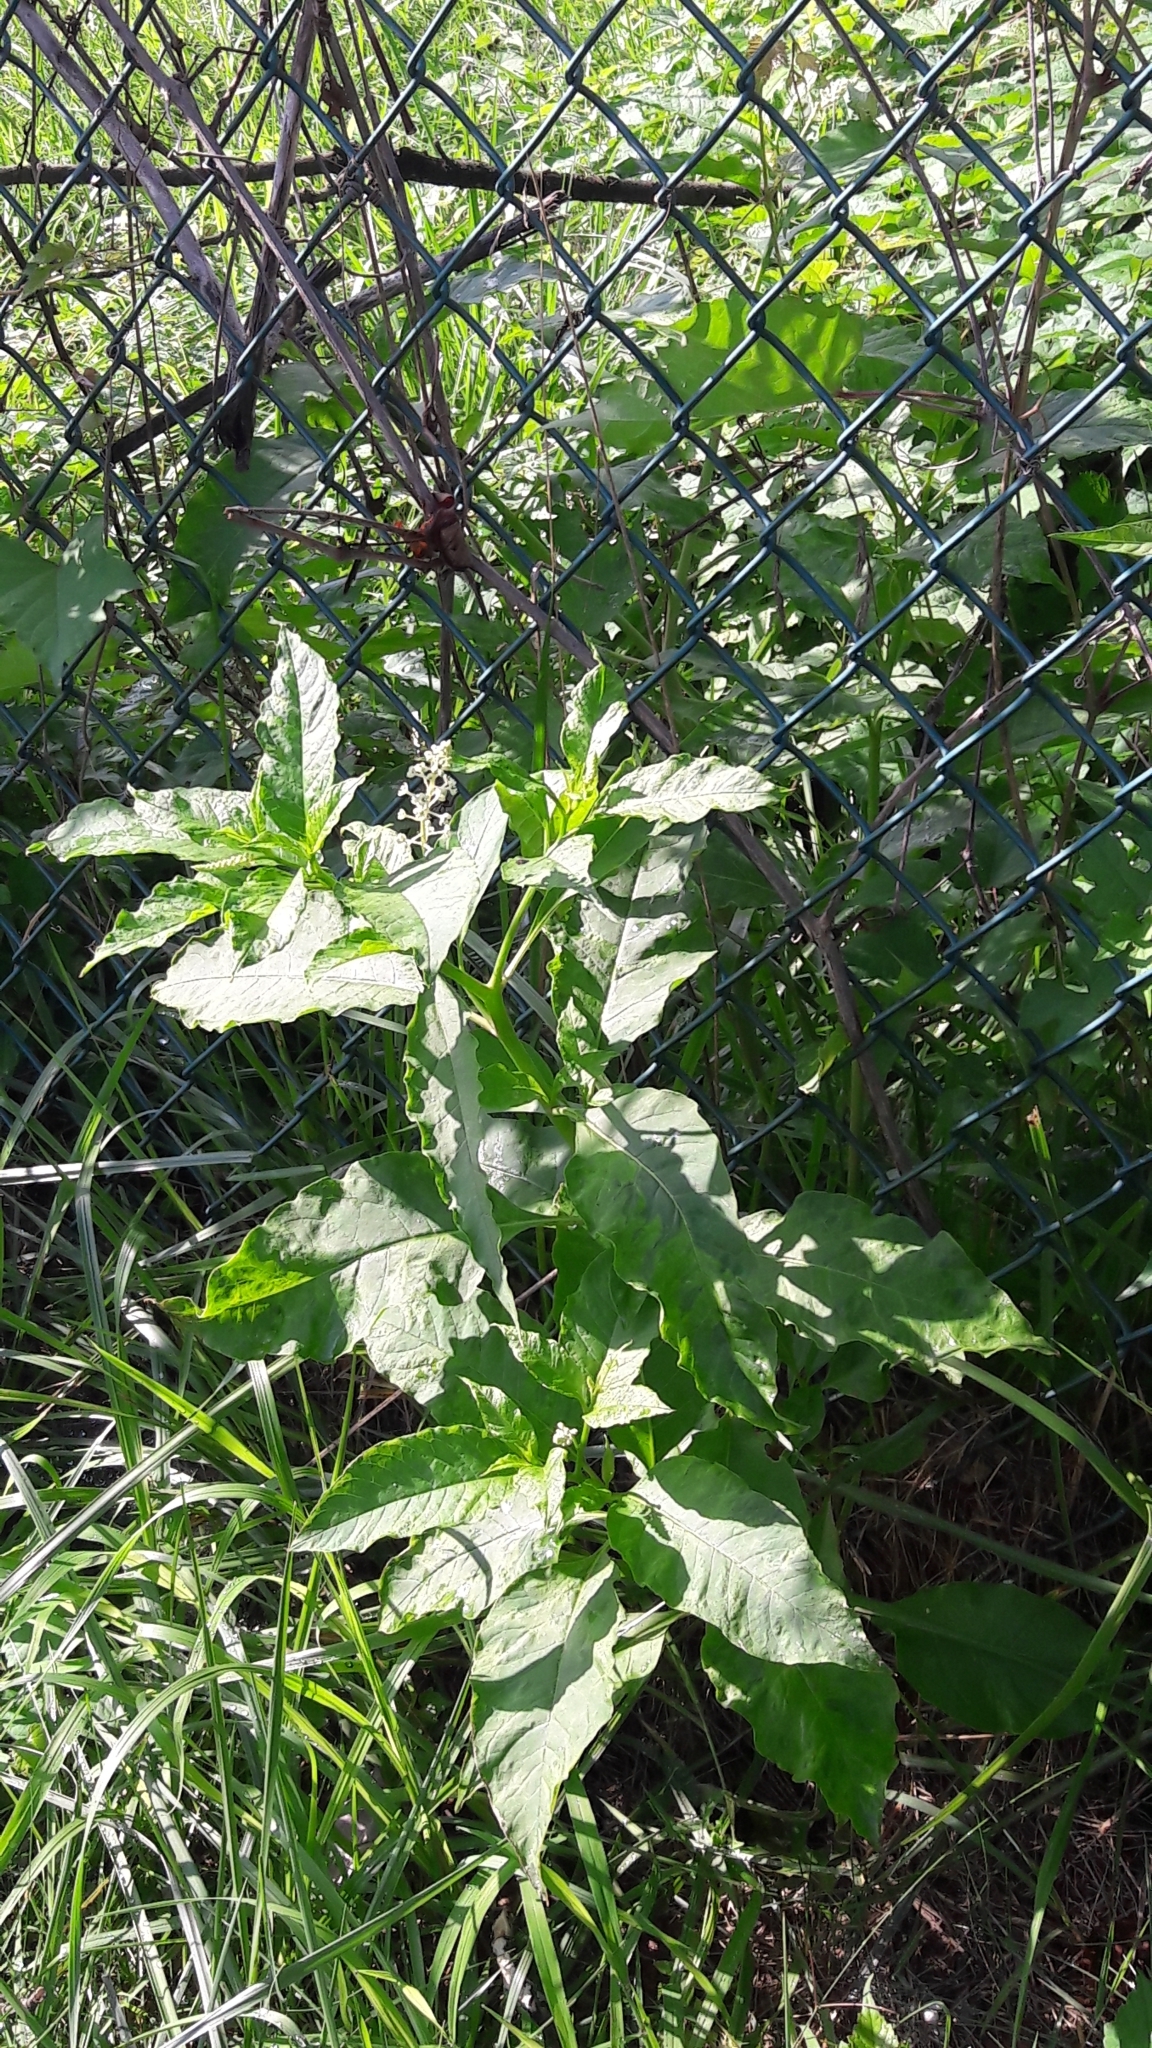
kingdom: Plantae
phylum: Tracheophyta
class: Magnoliopsida
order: Caryophyllales
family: Phytolaccaceae
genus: Phytolacca
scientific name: Phytolacca americana
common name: American pokeweed
